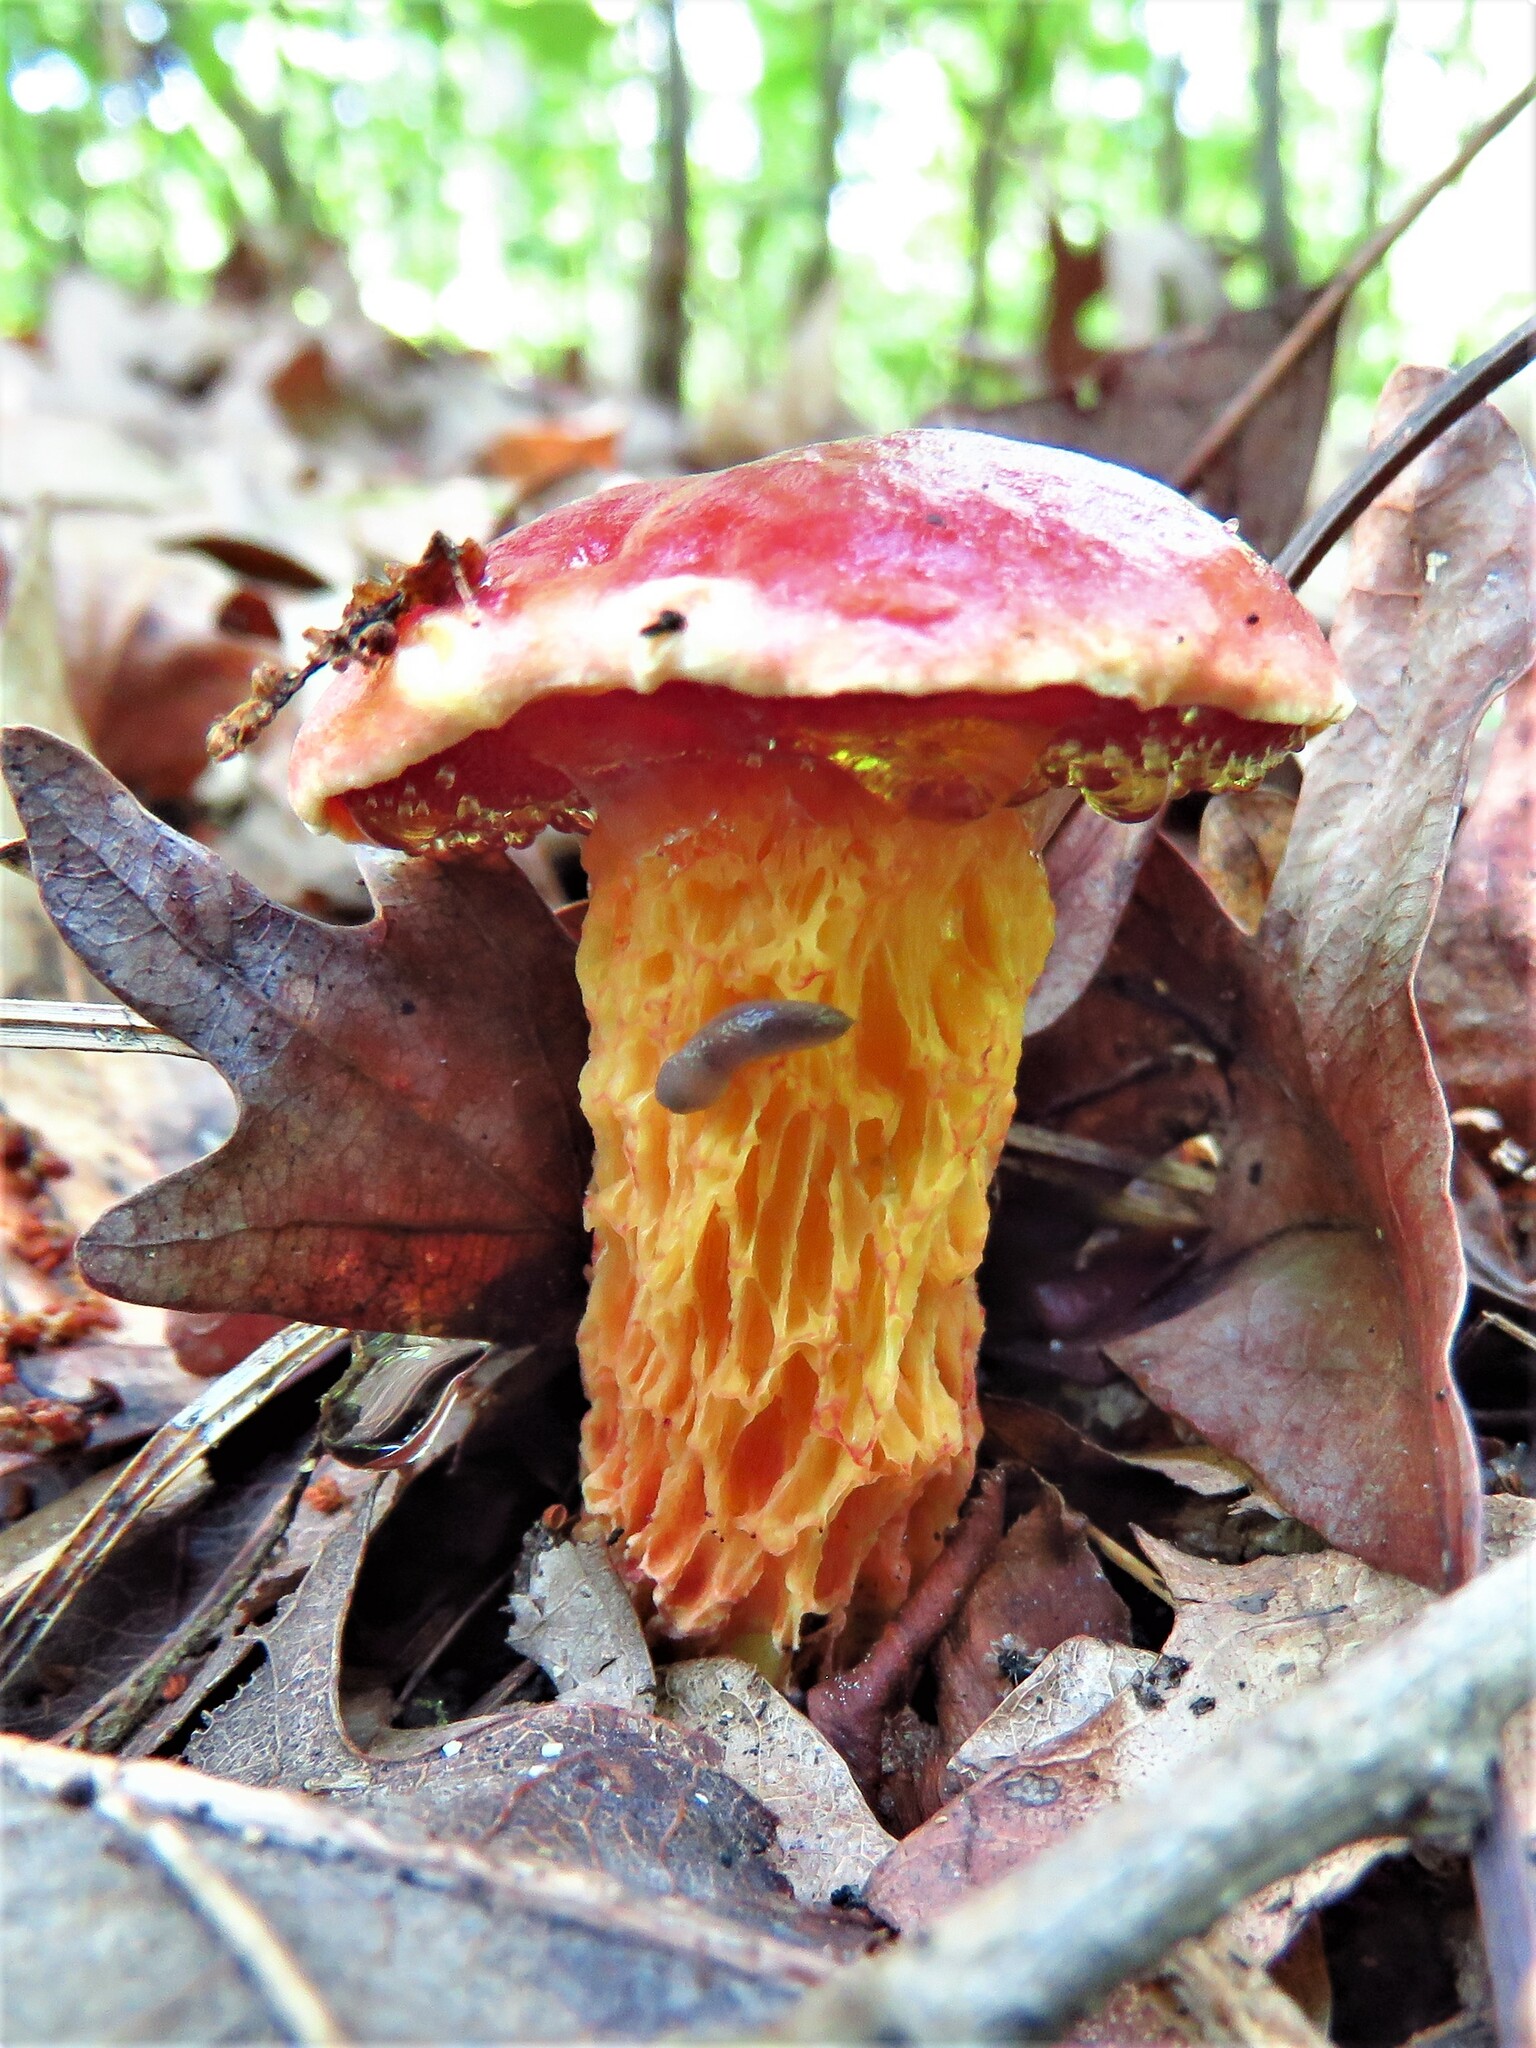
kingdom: Fungi
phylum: Basidiomycota
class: Agaricomycetes
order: Boletales
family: Boletaceae
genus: Butyriboletus
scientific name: Butyriboletus frostii
